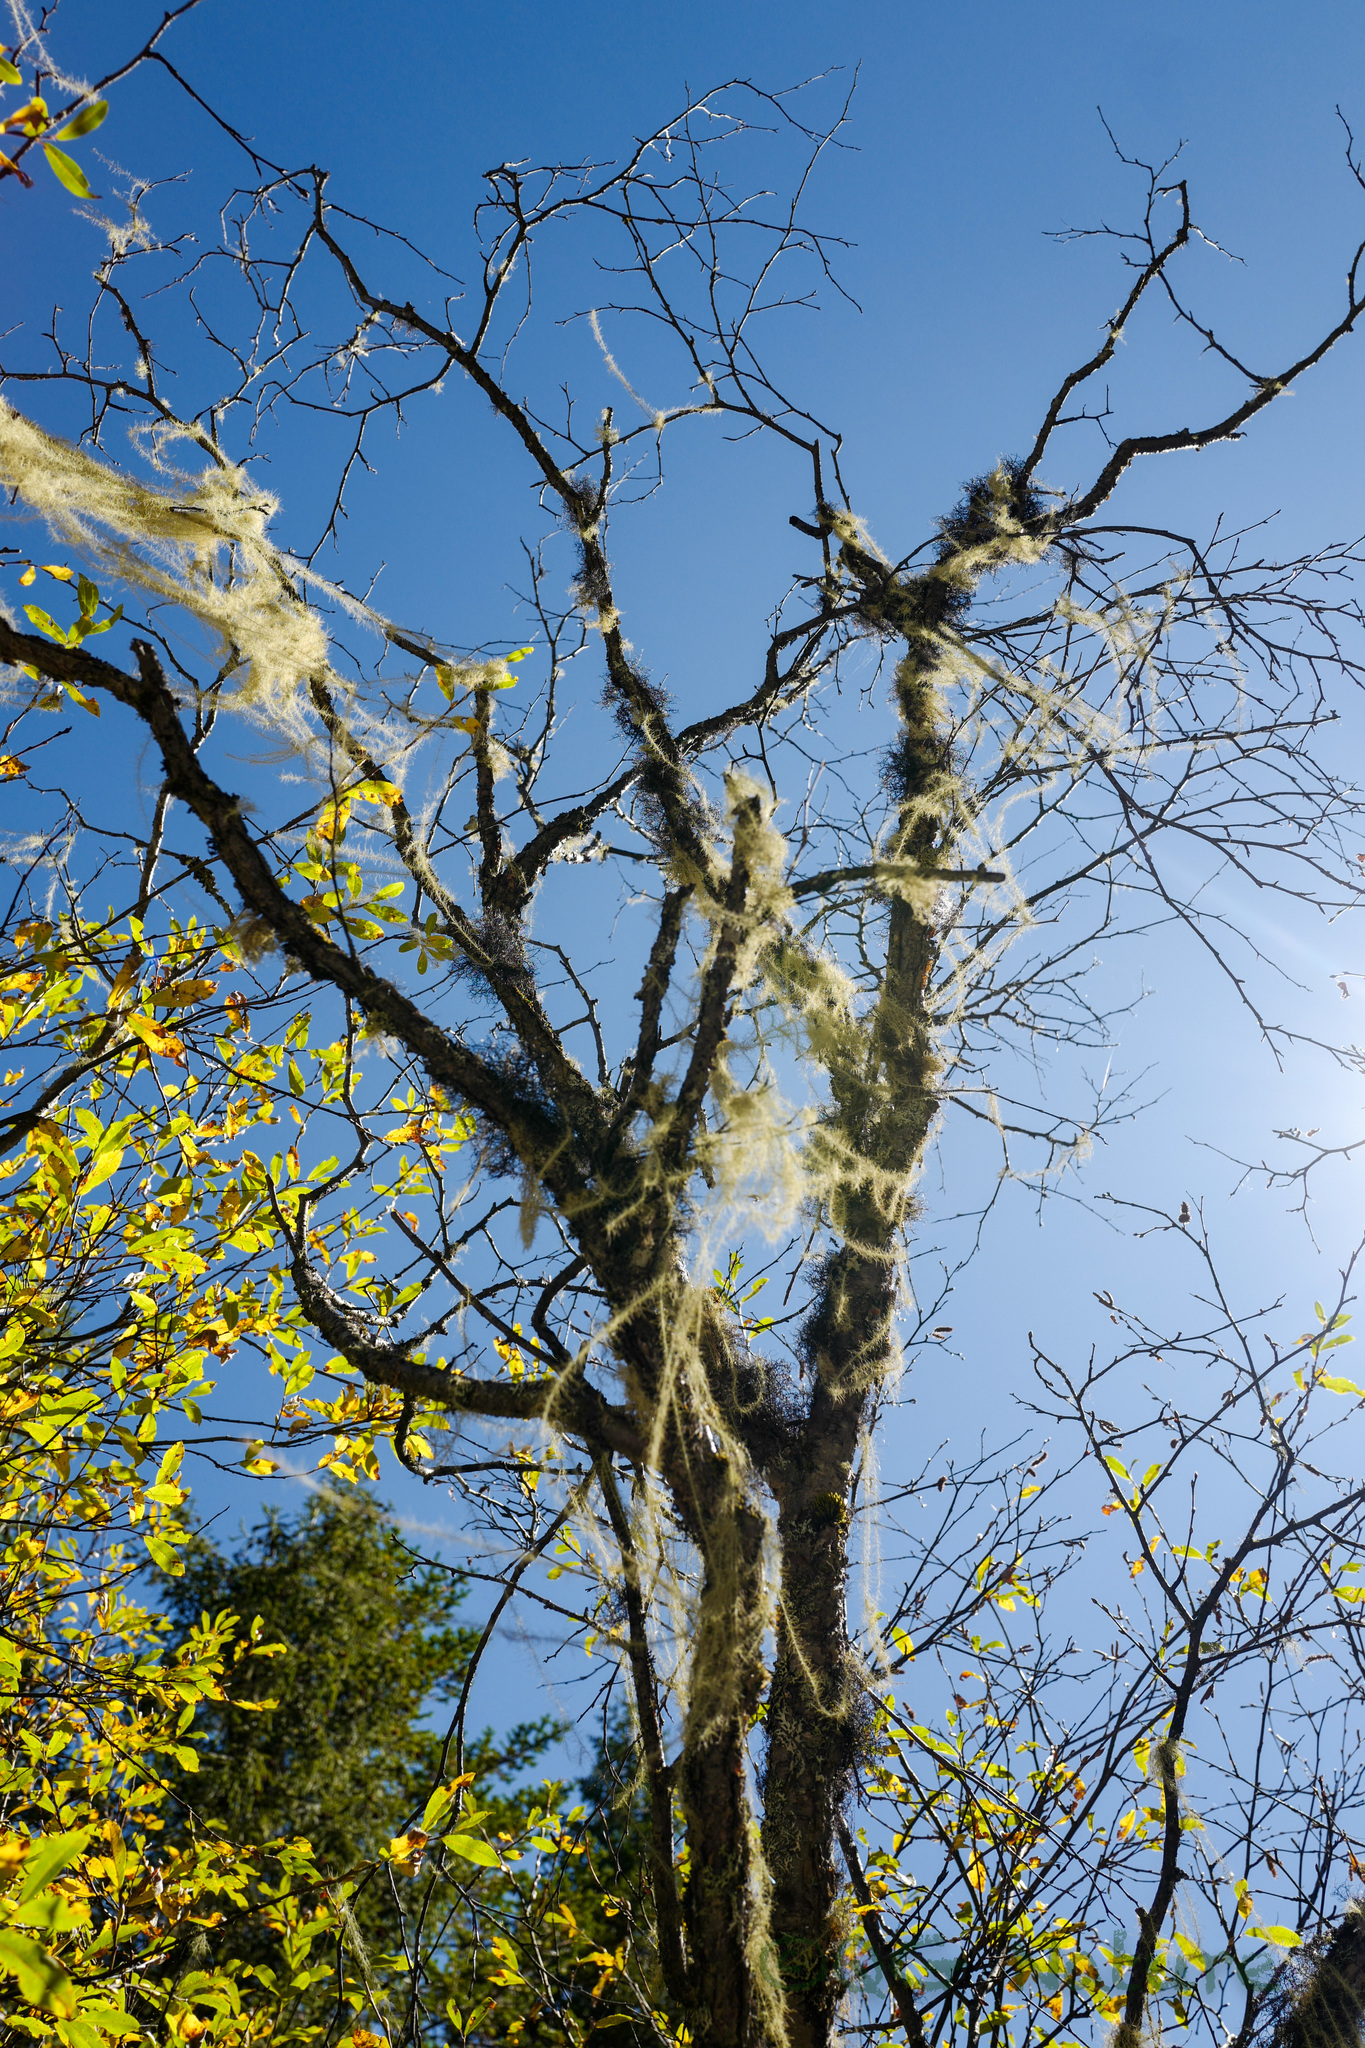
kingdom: Fungi
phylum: Ascomycota
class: Lecanoromycetes
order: Lecanorales
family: Parmeliaceae
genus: Dolichousnea
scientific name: Dolichousnea longissima
